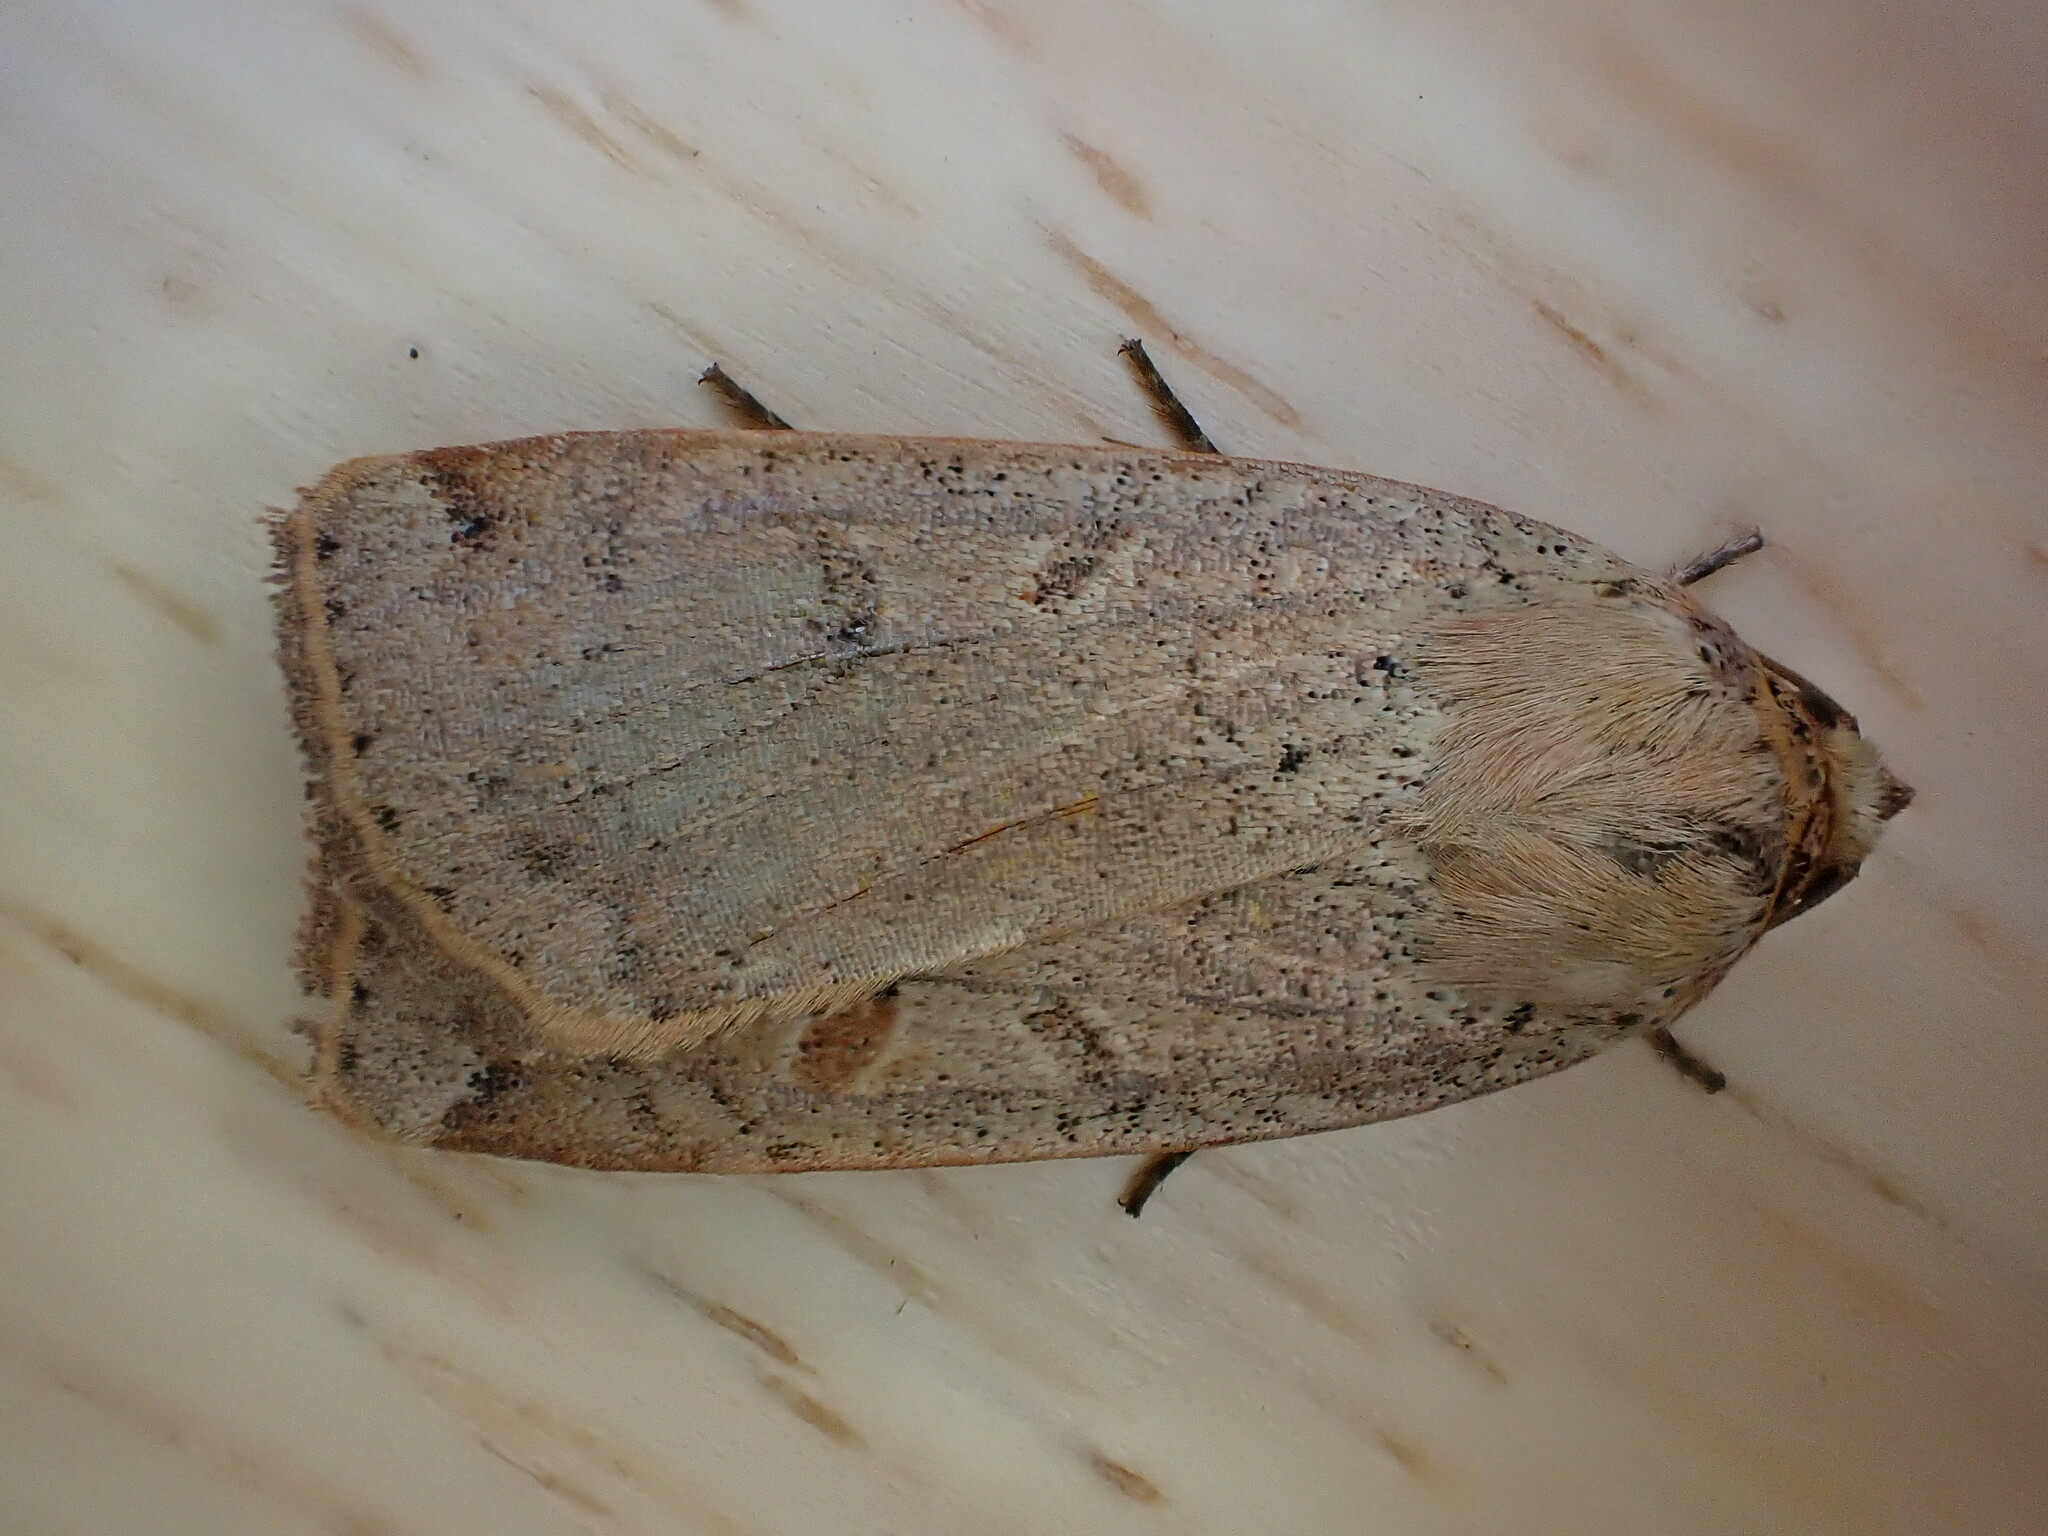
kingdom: Animalia
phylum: Arthropoda
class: Insecta
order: Lepidoptera
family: Noctuidae
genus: Noctua
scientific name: Noctua comes
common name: Lesser yellow underwing
